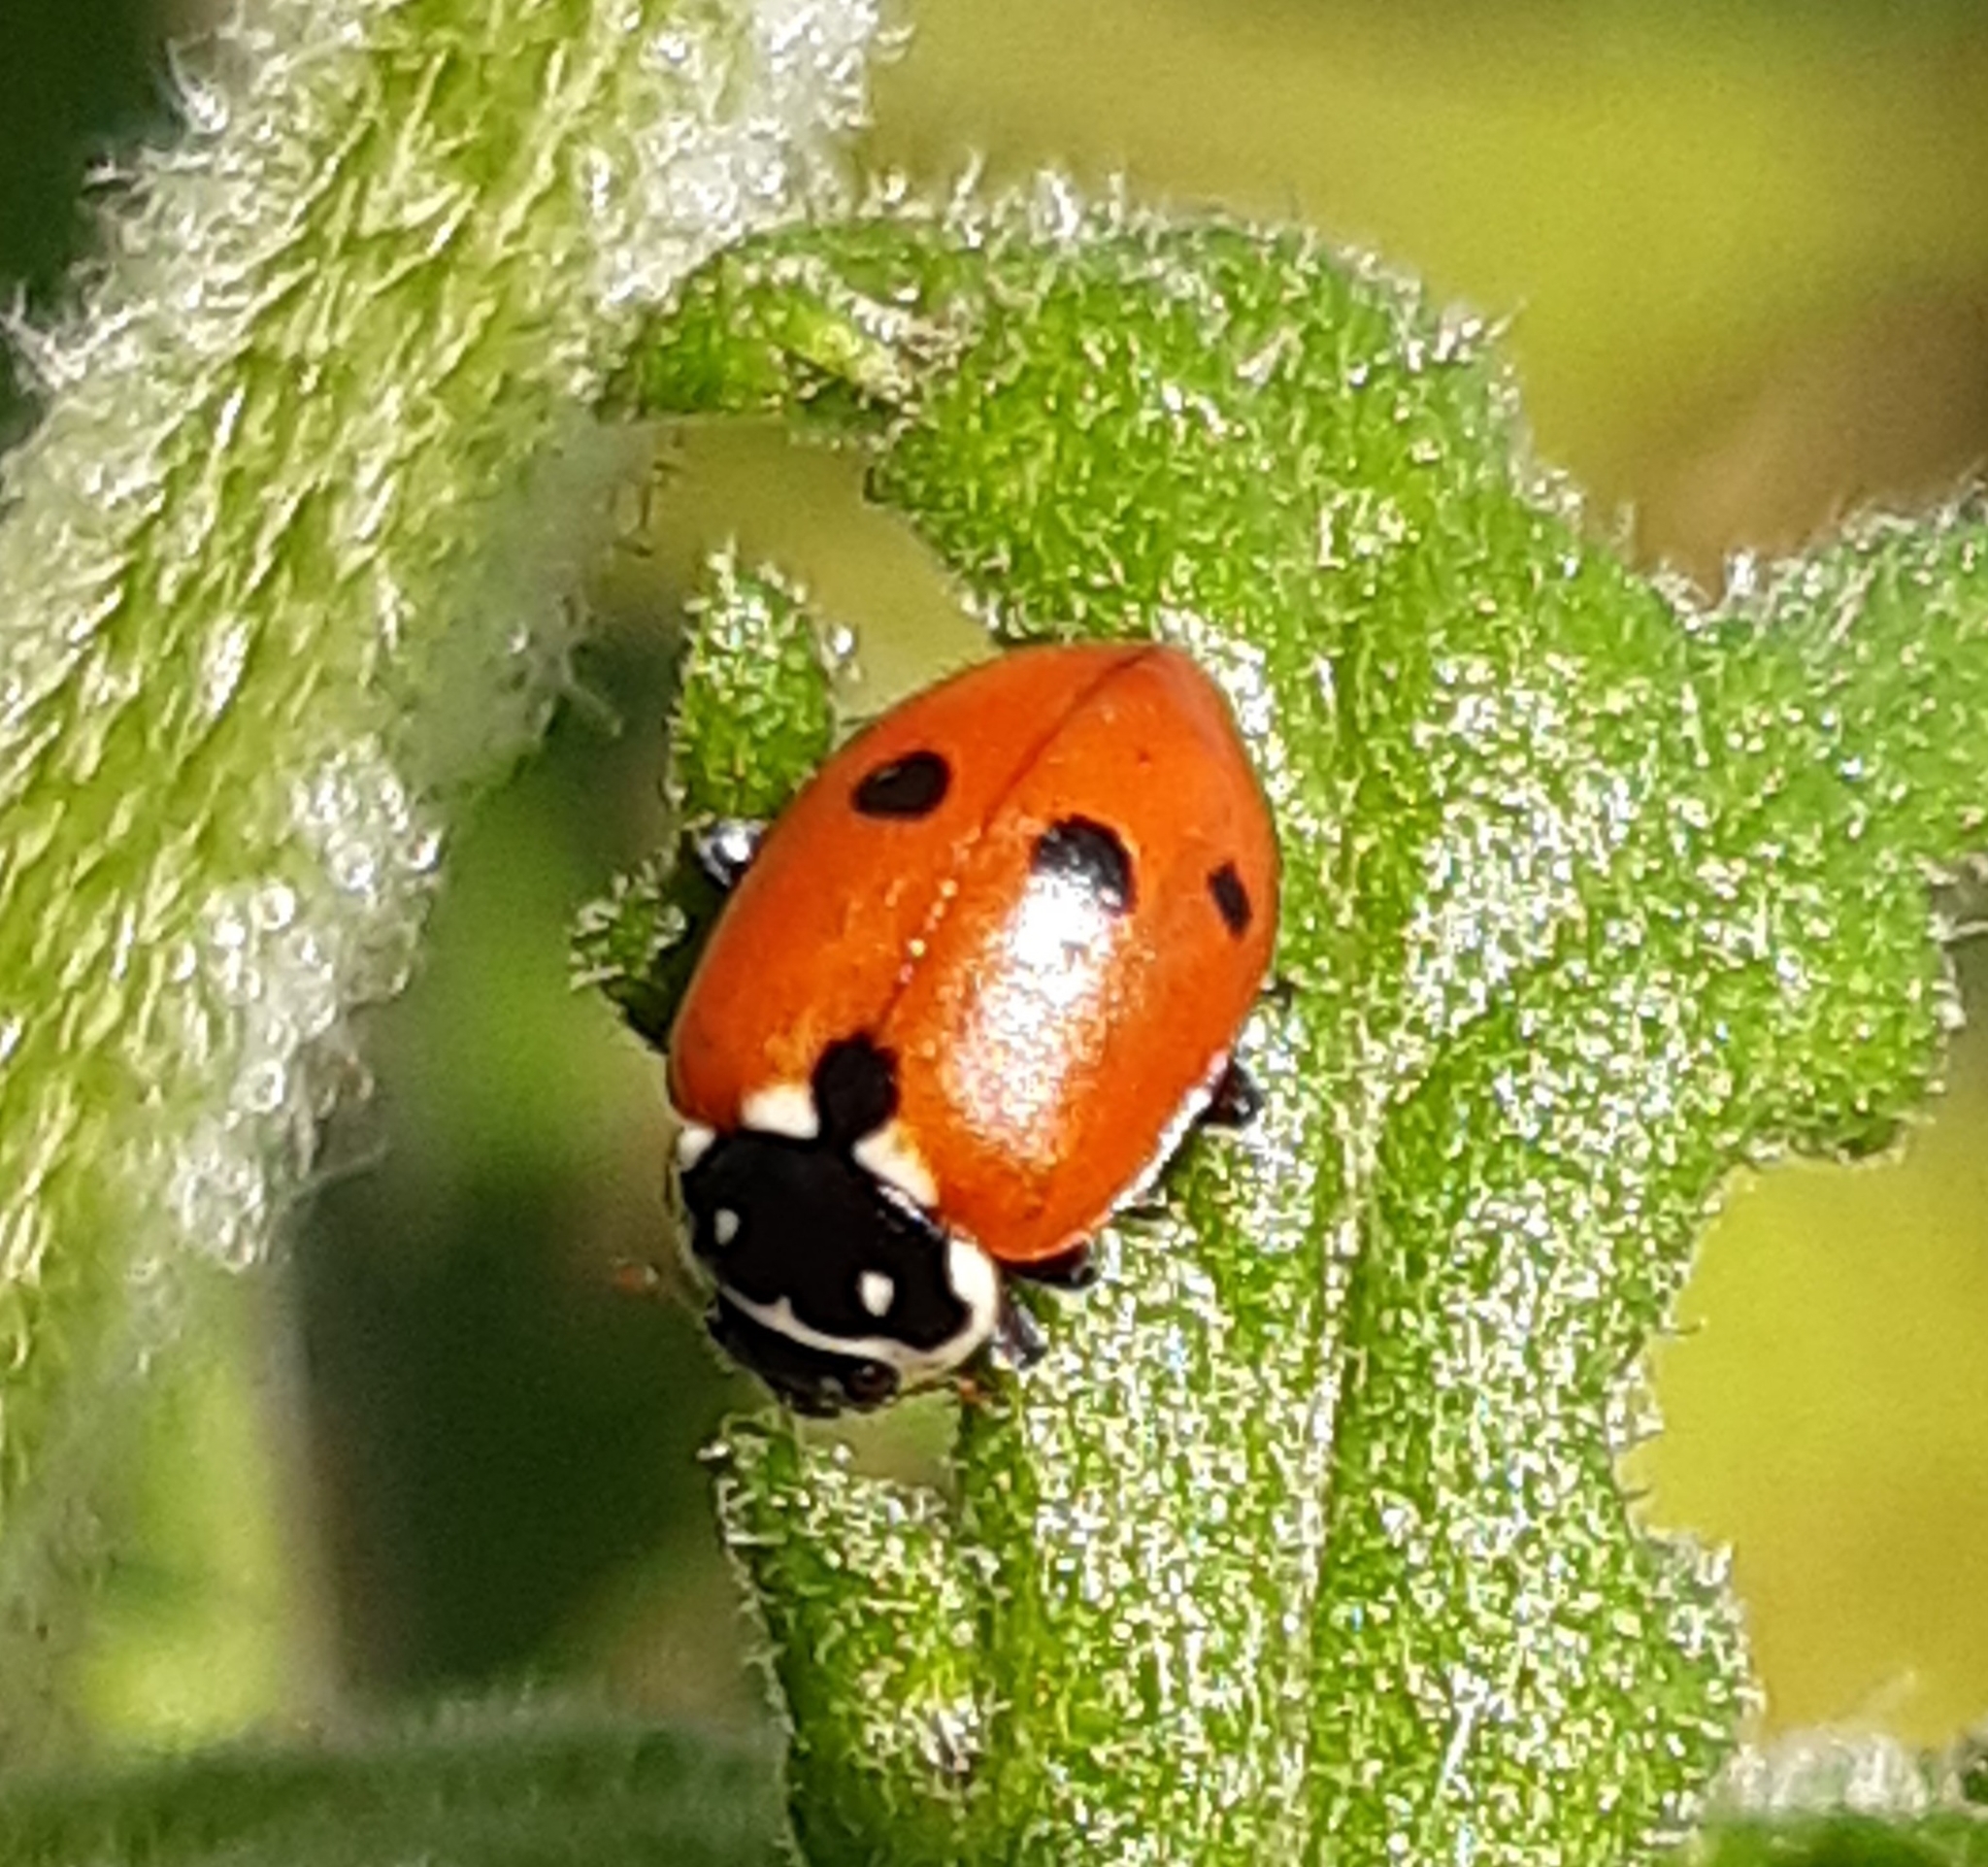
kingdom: Animalia
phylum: Arthropoda
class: Insecta
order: Coleoptera
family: Coccinellidae
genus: Hippodamia
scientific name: Hippodamia variegata
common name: Ladybird beetle
